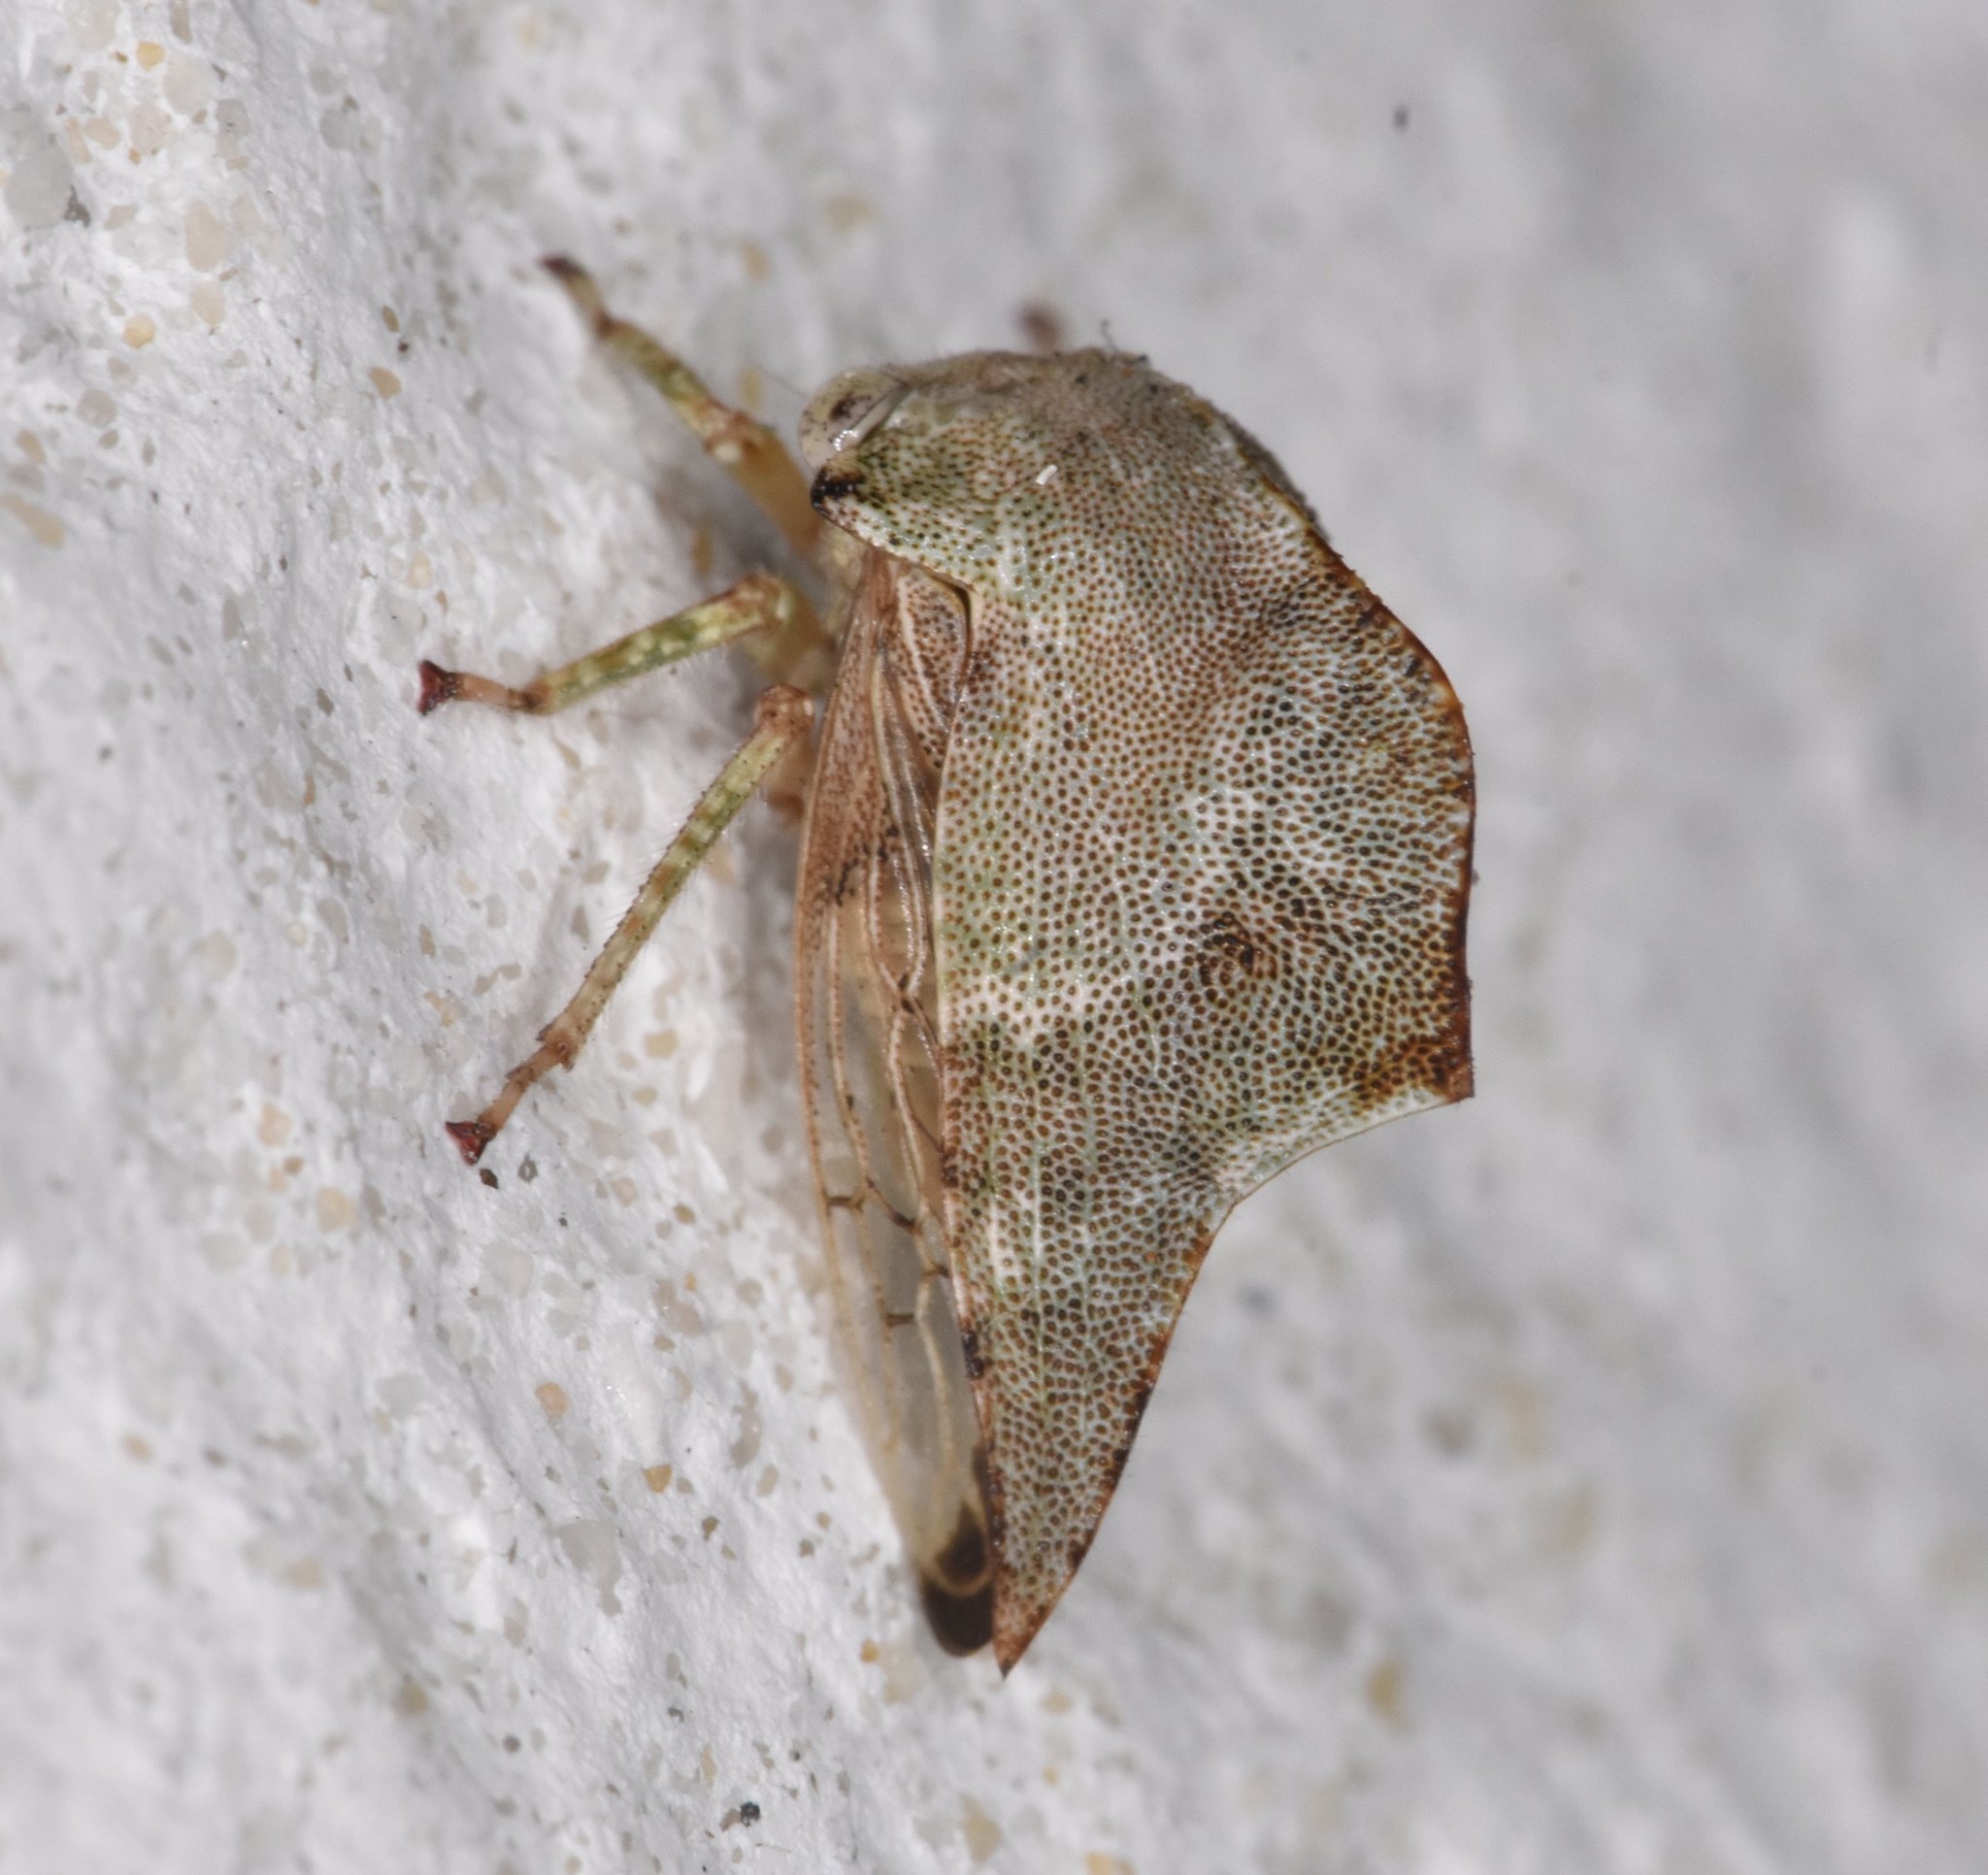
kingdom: Animalia
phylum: Arthropoda
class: Insecta
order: Hemiptera
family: Membracidae
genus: Telamona
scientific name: Telamona
